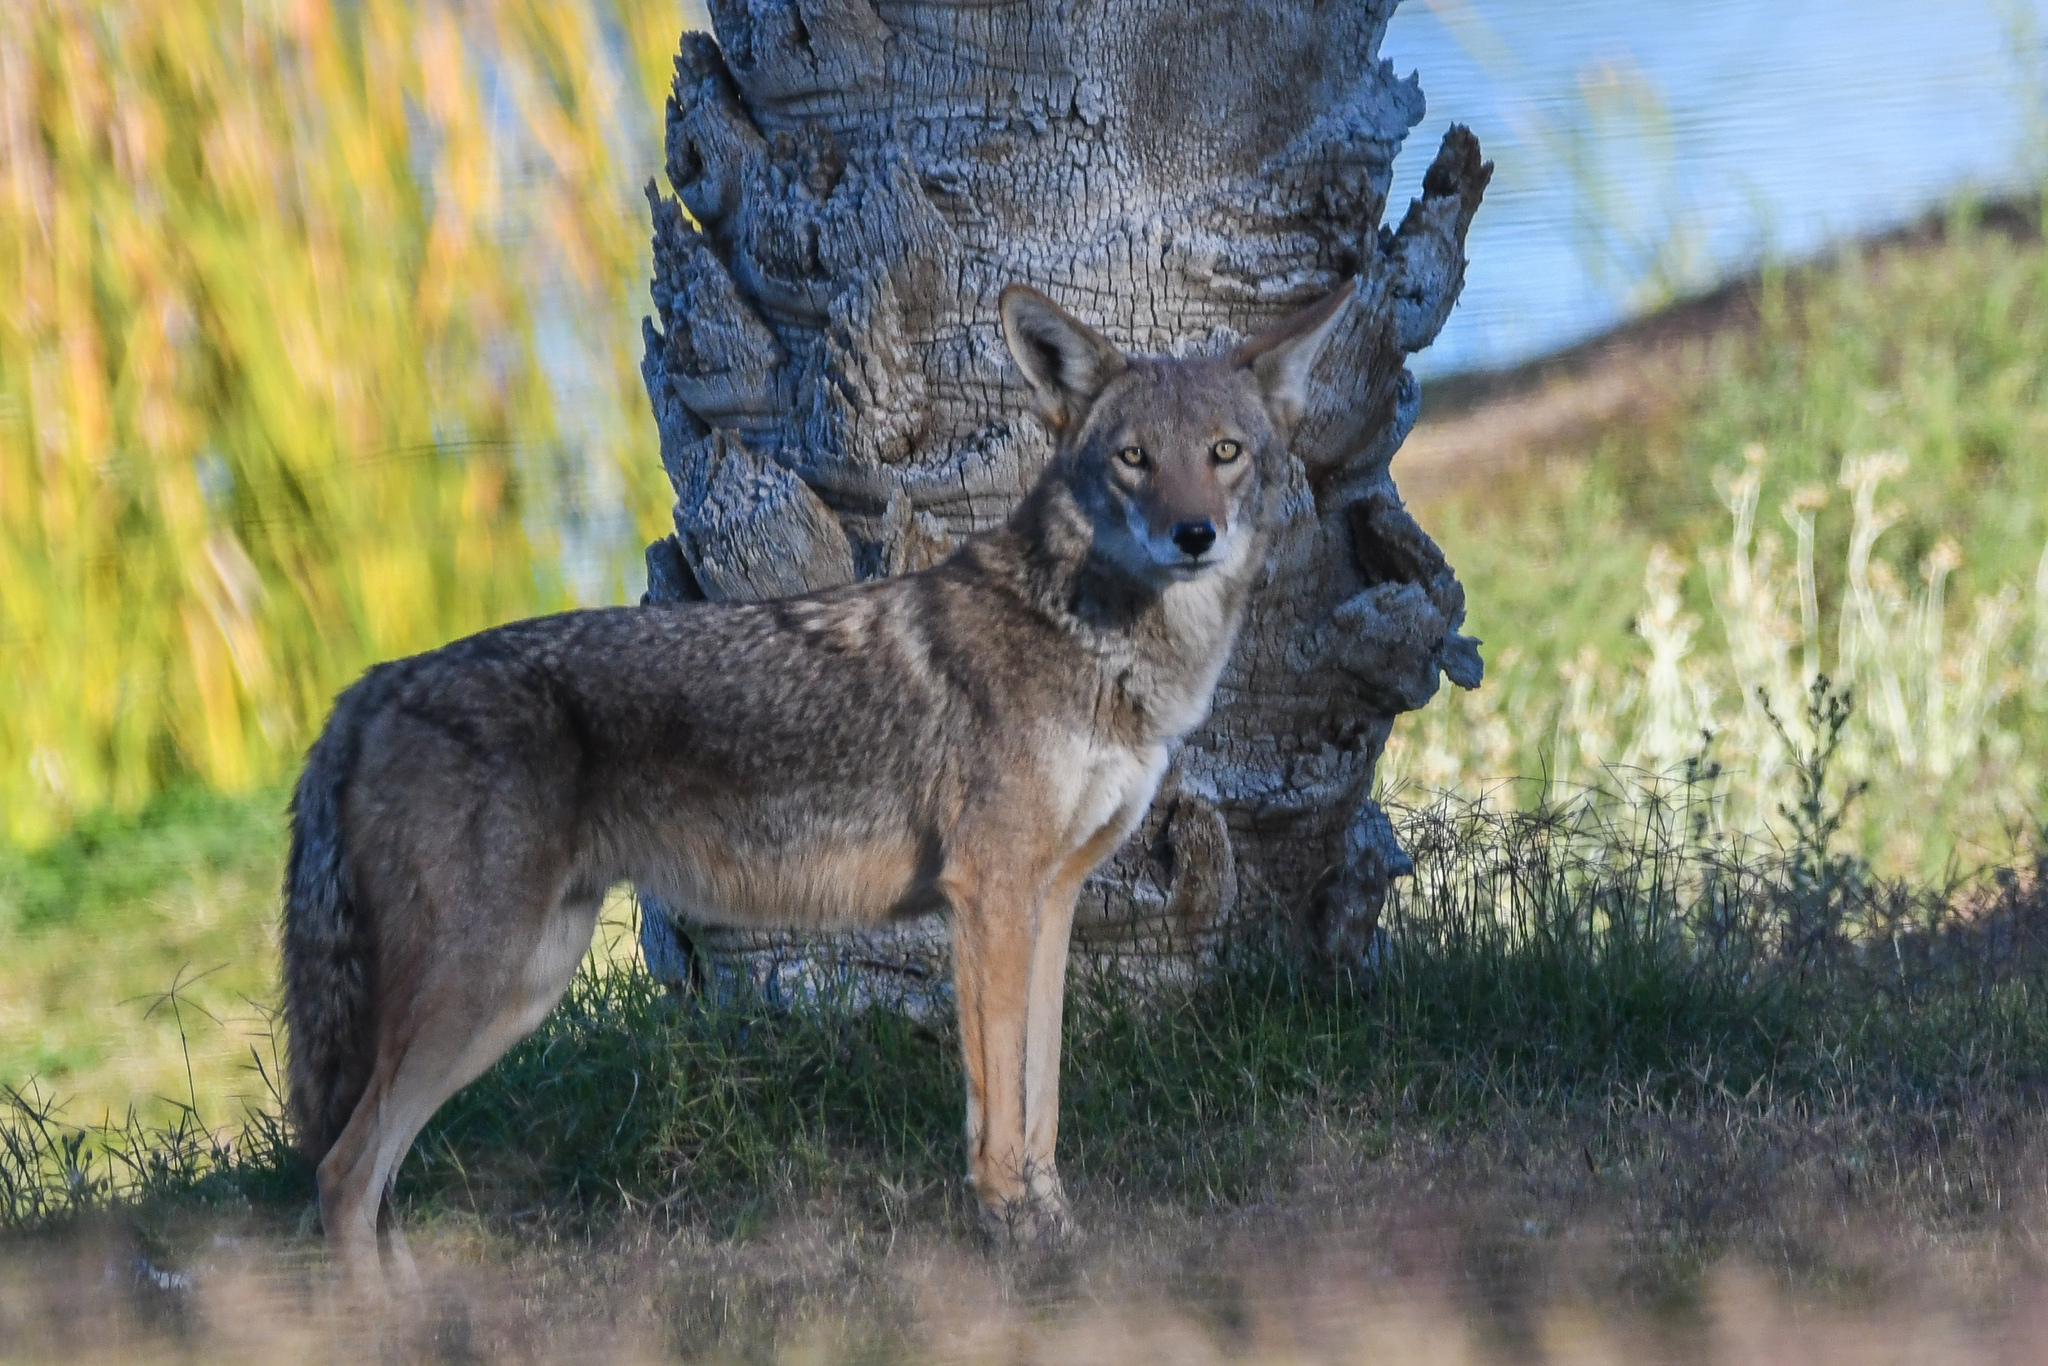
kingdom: Animalia
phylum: Chordata
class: Mammalia
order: Carnivora
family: Canidae
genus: Canis
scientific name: Canis latrans
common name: Coyote
